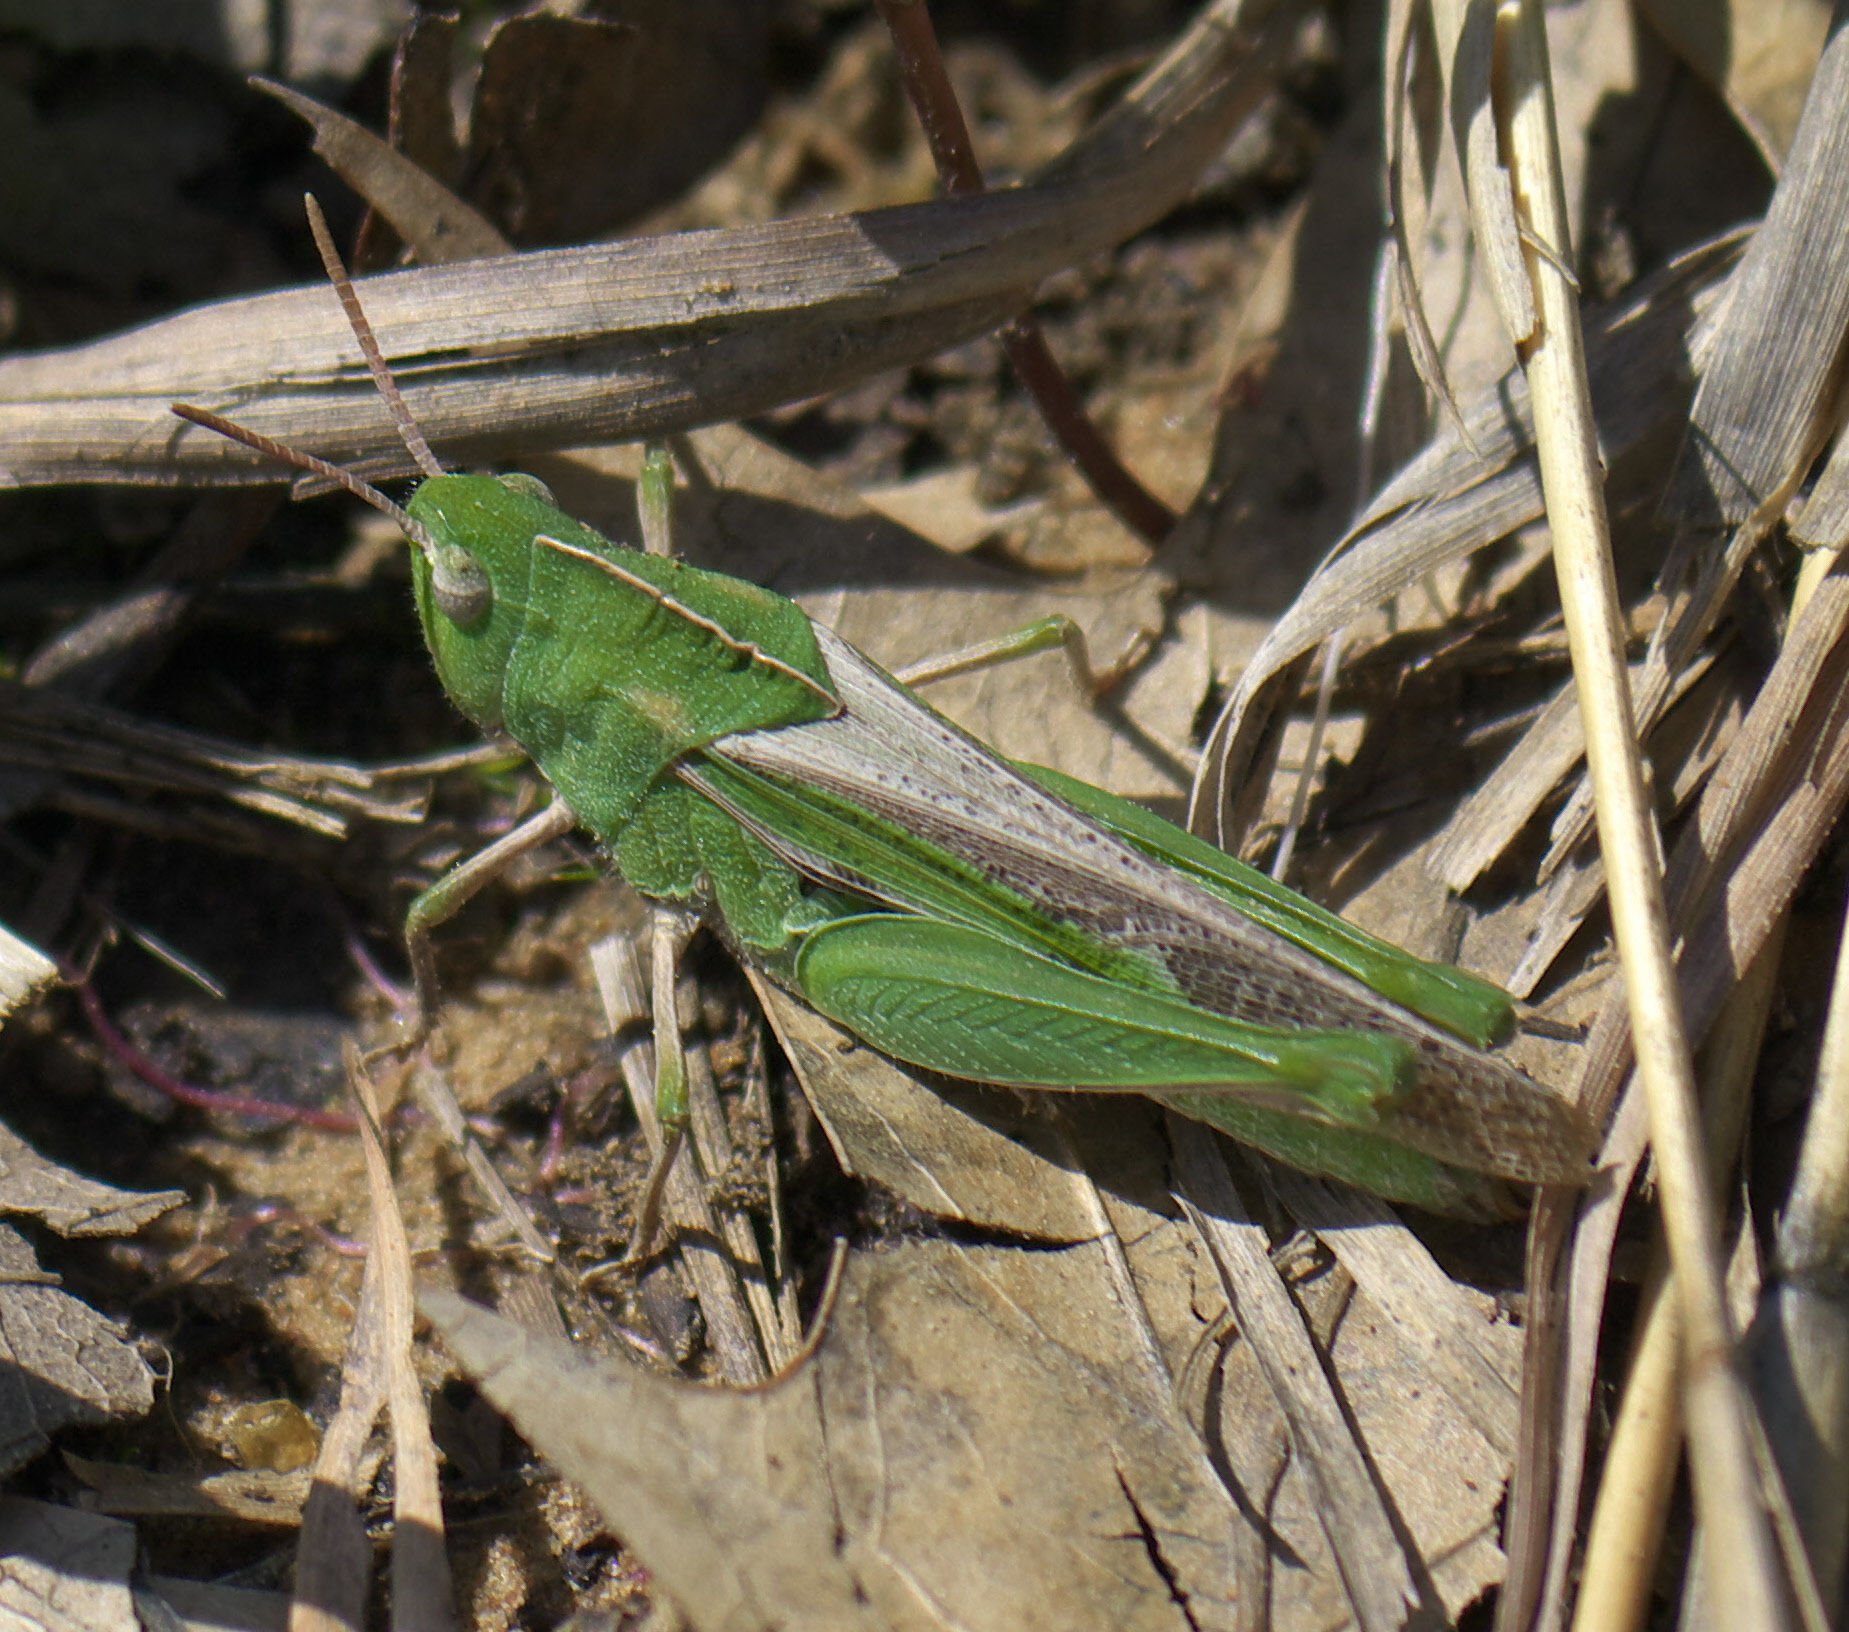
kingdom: Animalia
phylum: Arthropoda
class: Insecta
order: Orthoptera
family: Acrididae
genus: Chortophaga
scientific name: Chortophaga viridifasciata
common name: Green-striped grasshopper
